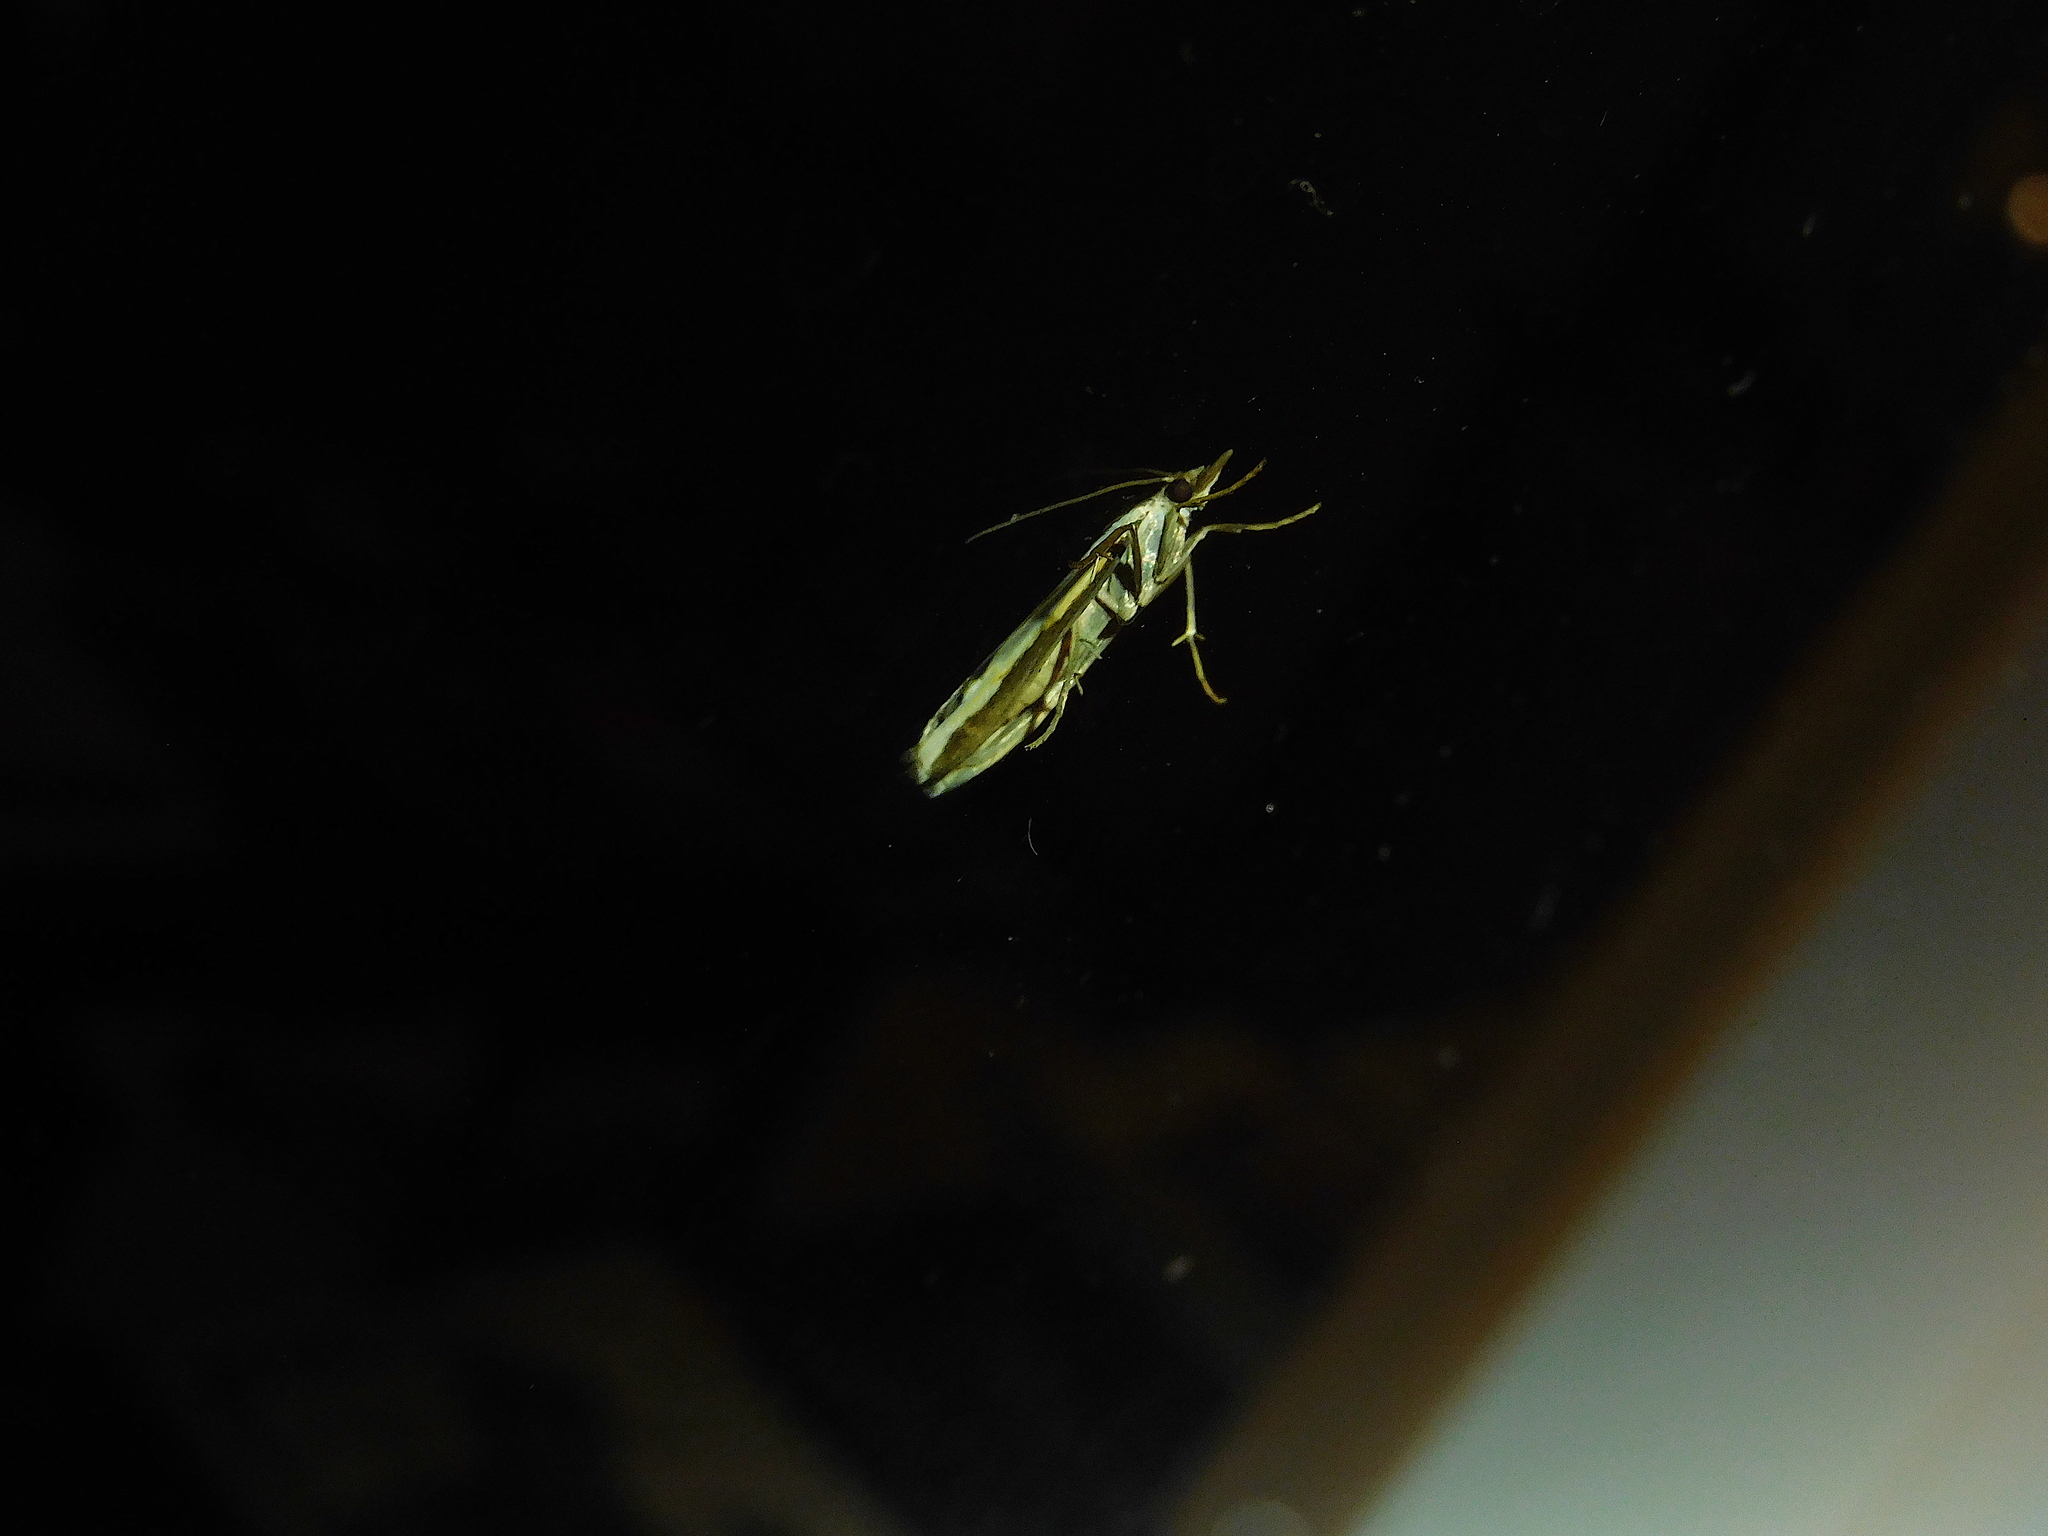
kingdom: Animalia
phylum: Arthropoda
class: Insecta
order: Lepidoptera
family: Crambidae
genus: Orocrambus
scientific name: Orocrambus vittellus
